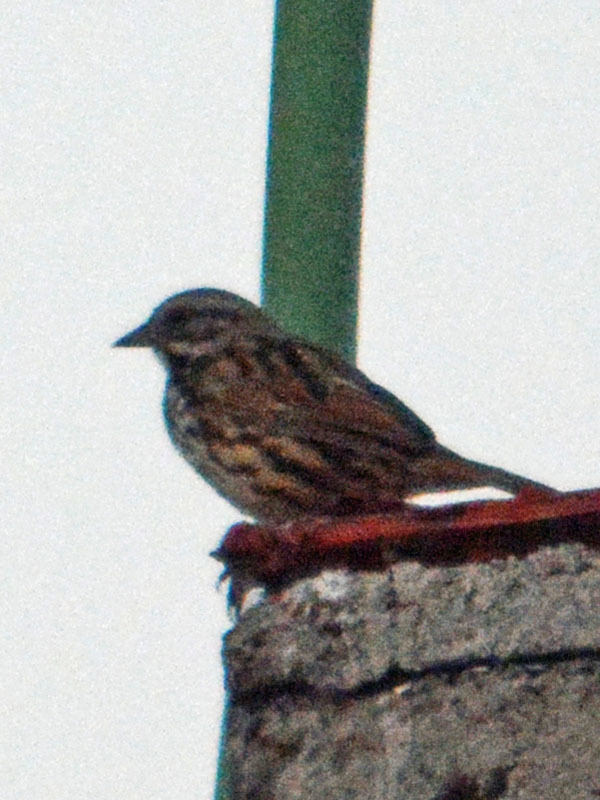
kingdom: Animalia
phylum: Chordata
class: Aves
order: Passeriformes
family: Passerellidae
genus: Melospiza
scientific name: Melospiza melodia
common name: Song sparrow
